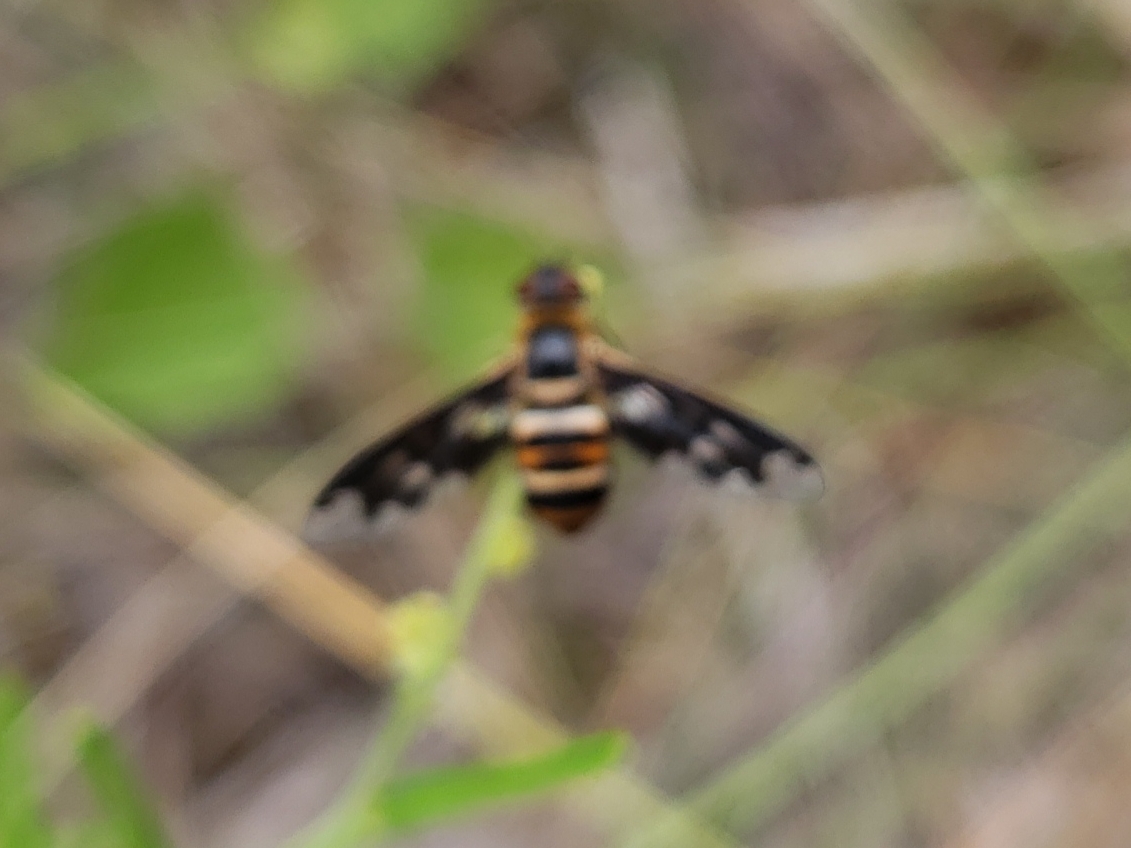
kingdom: Animalia
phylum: Arthropoda
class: Insecta
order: Diptera
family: Bombyliidae
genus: Exoprosopa
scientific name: Exoprosopa fascipennis
